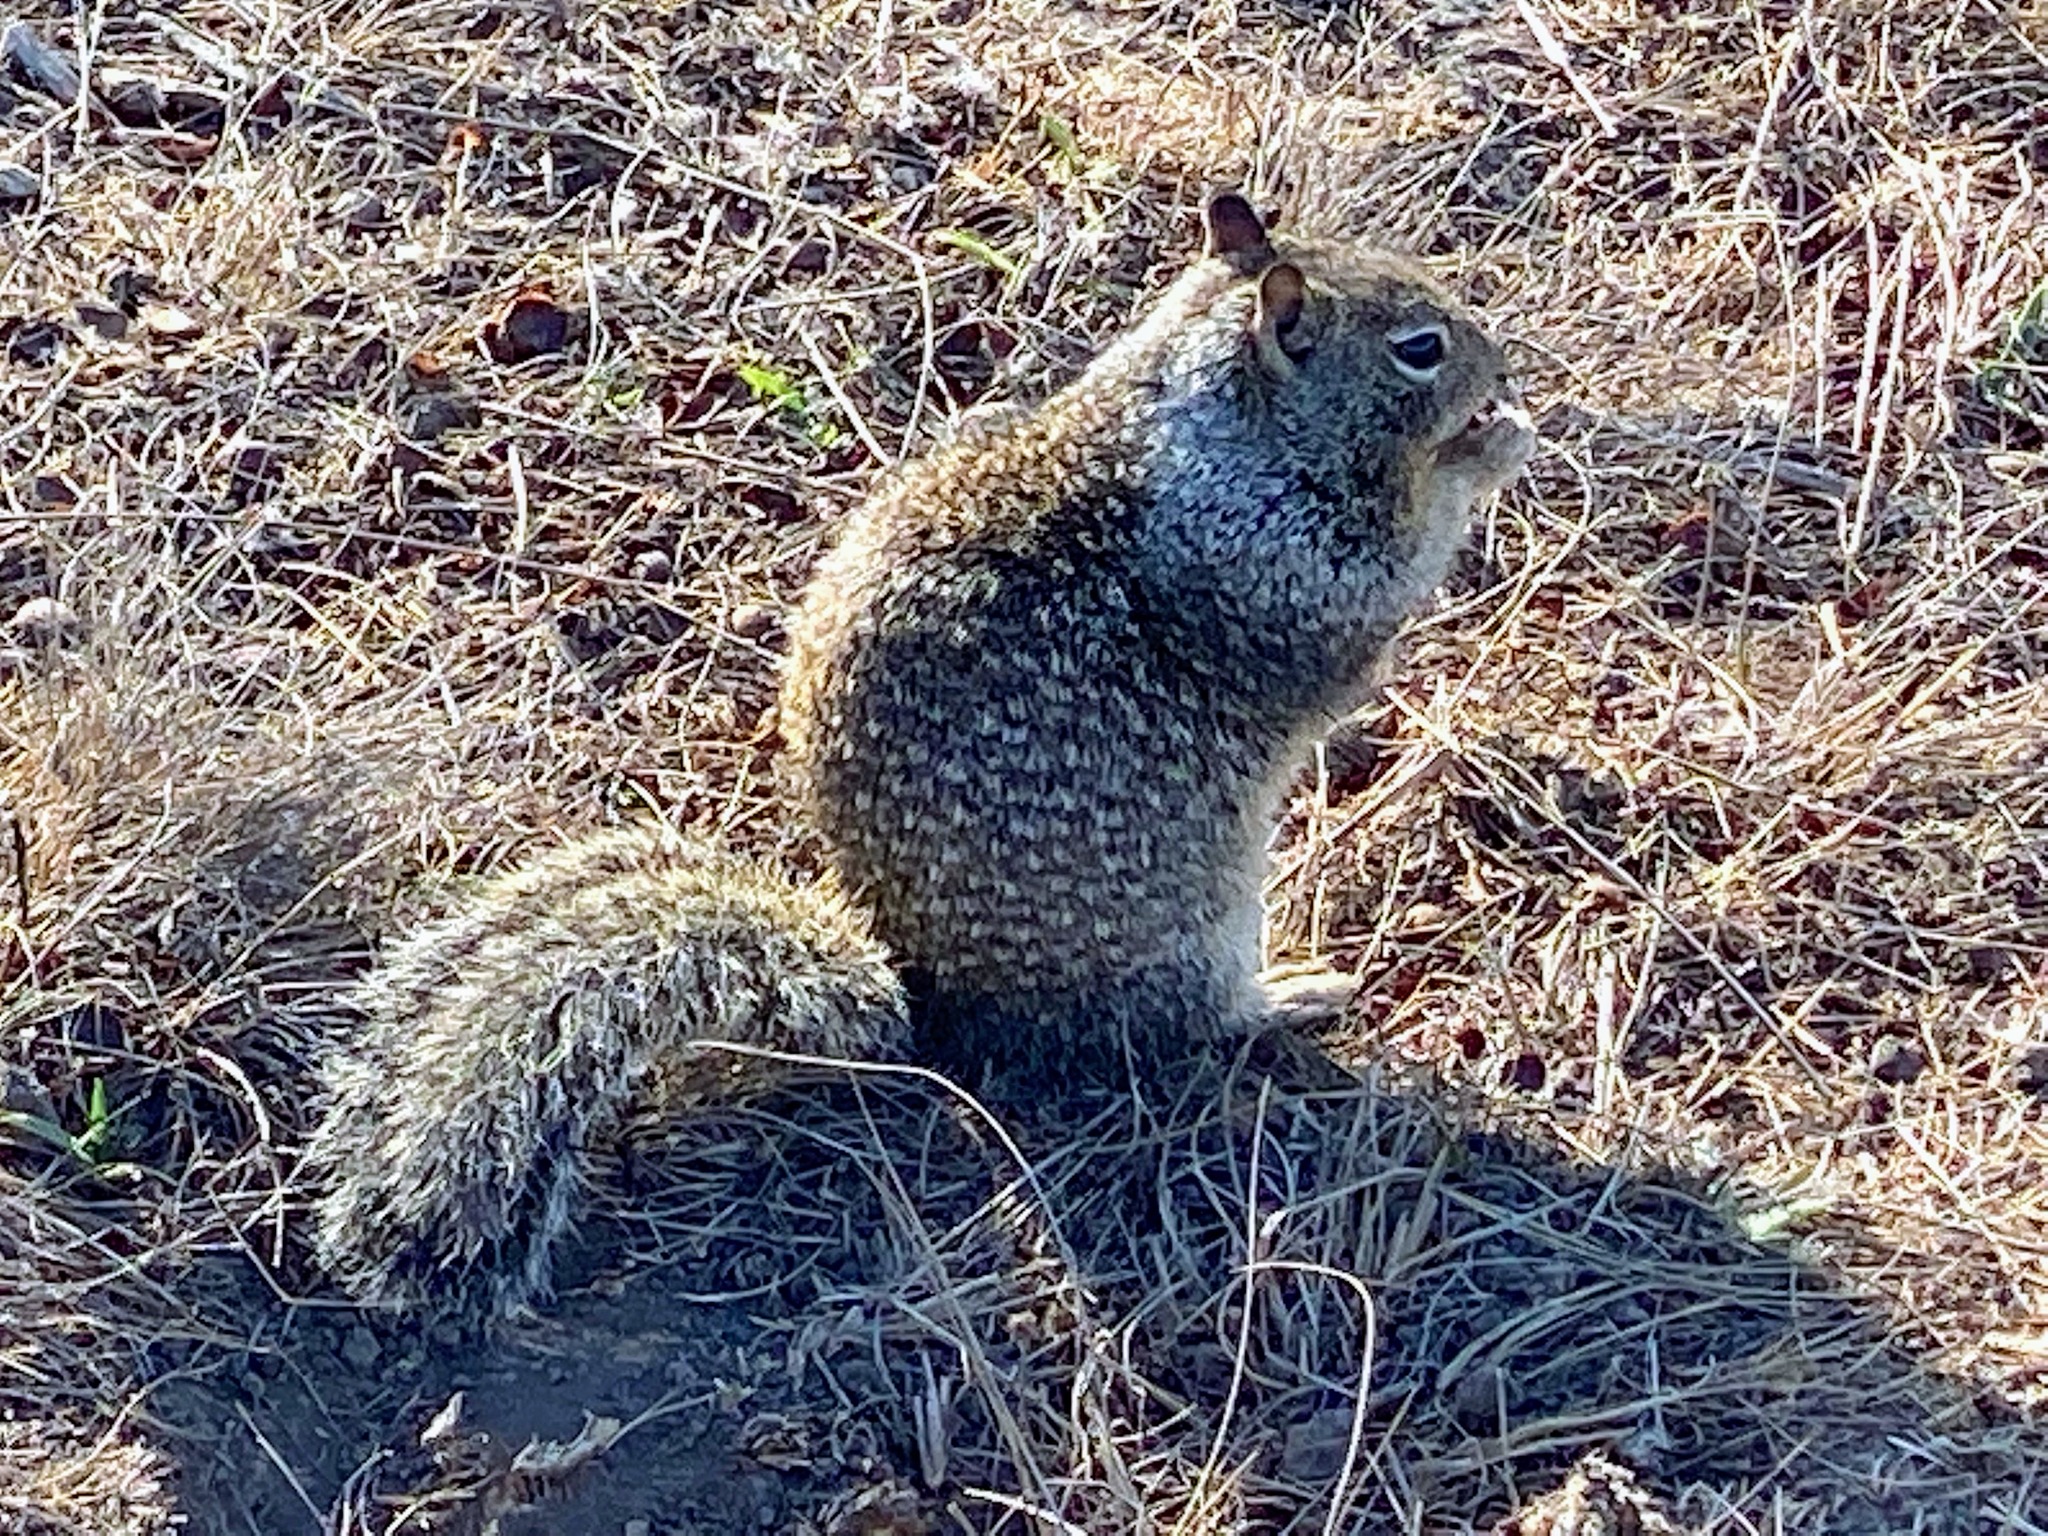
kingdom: Animalia
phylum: Chordata
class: Mammalia
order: Rodentia
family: Sciuridae
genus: Otospermophilus
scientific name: Otospermophilus beecheyi
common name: California ground squirrel
